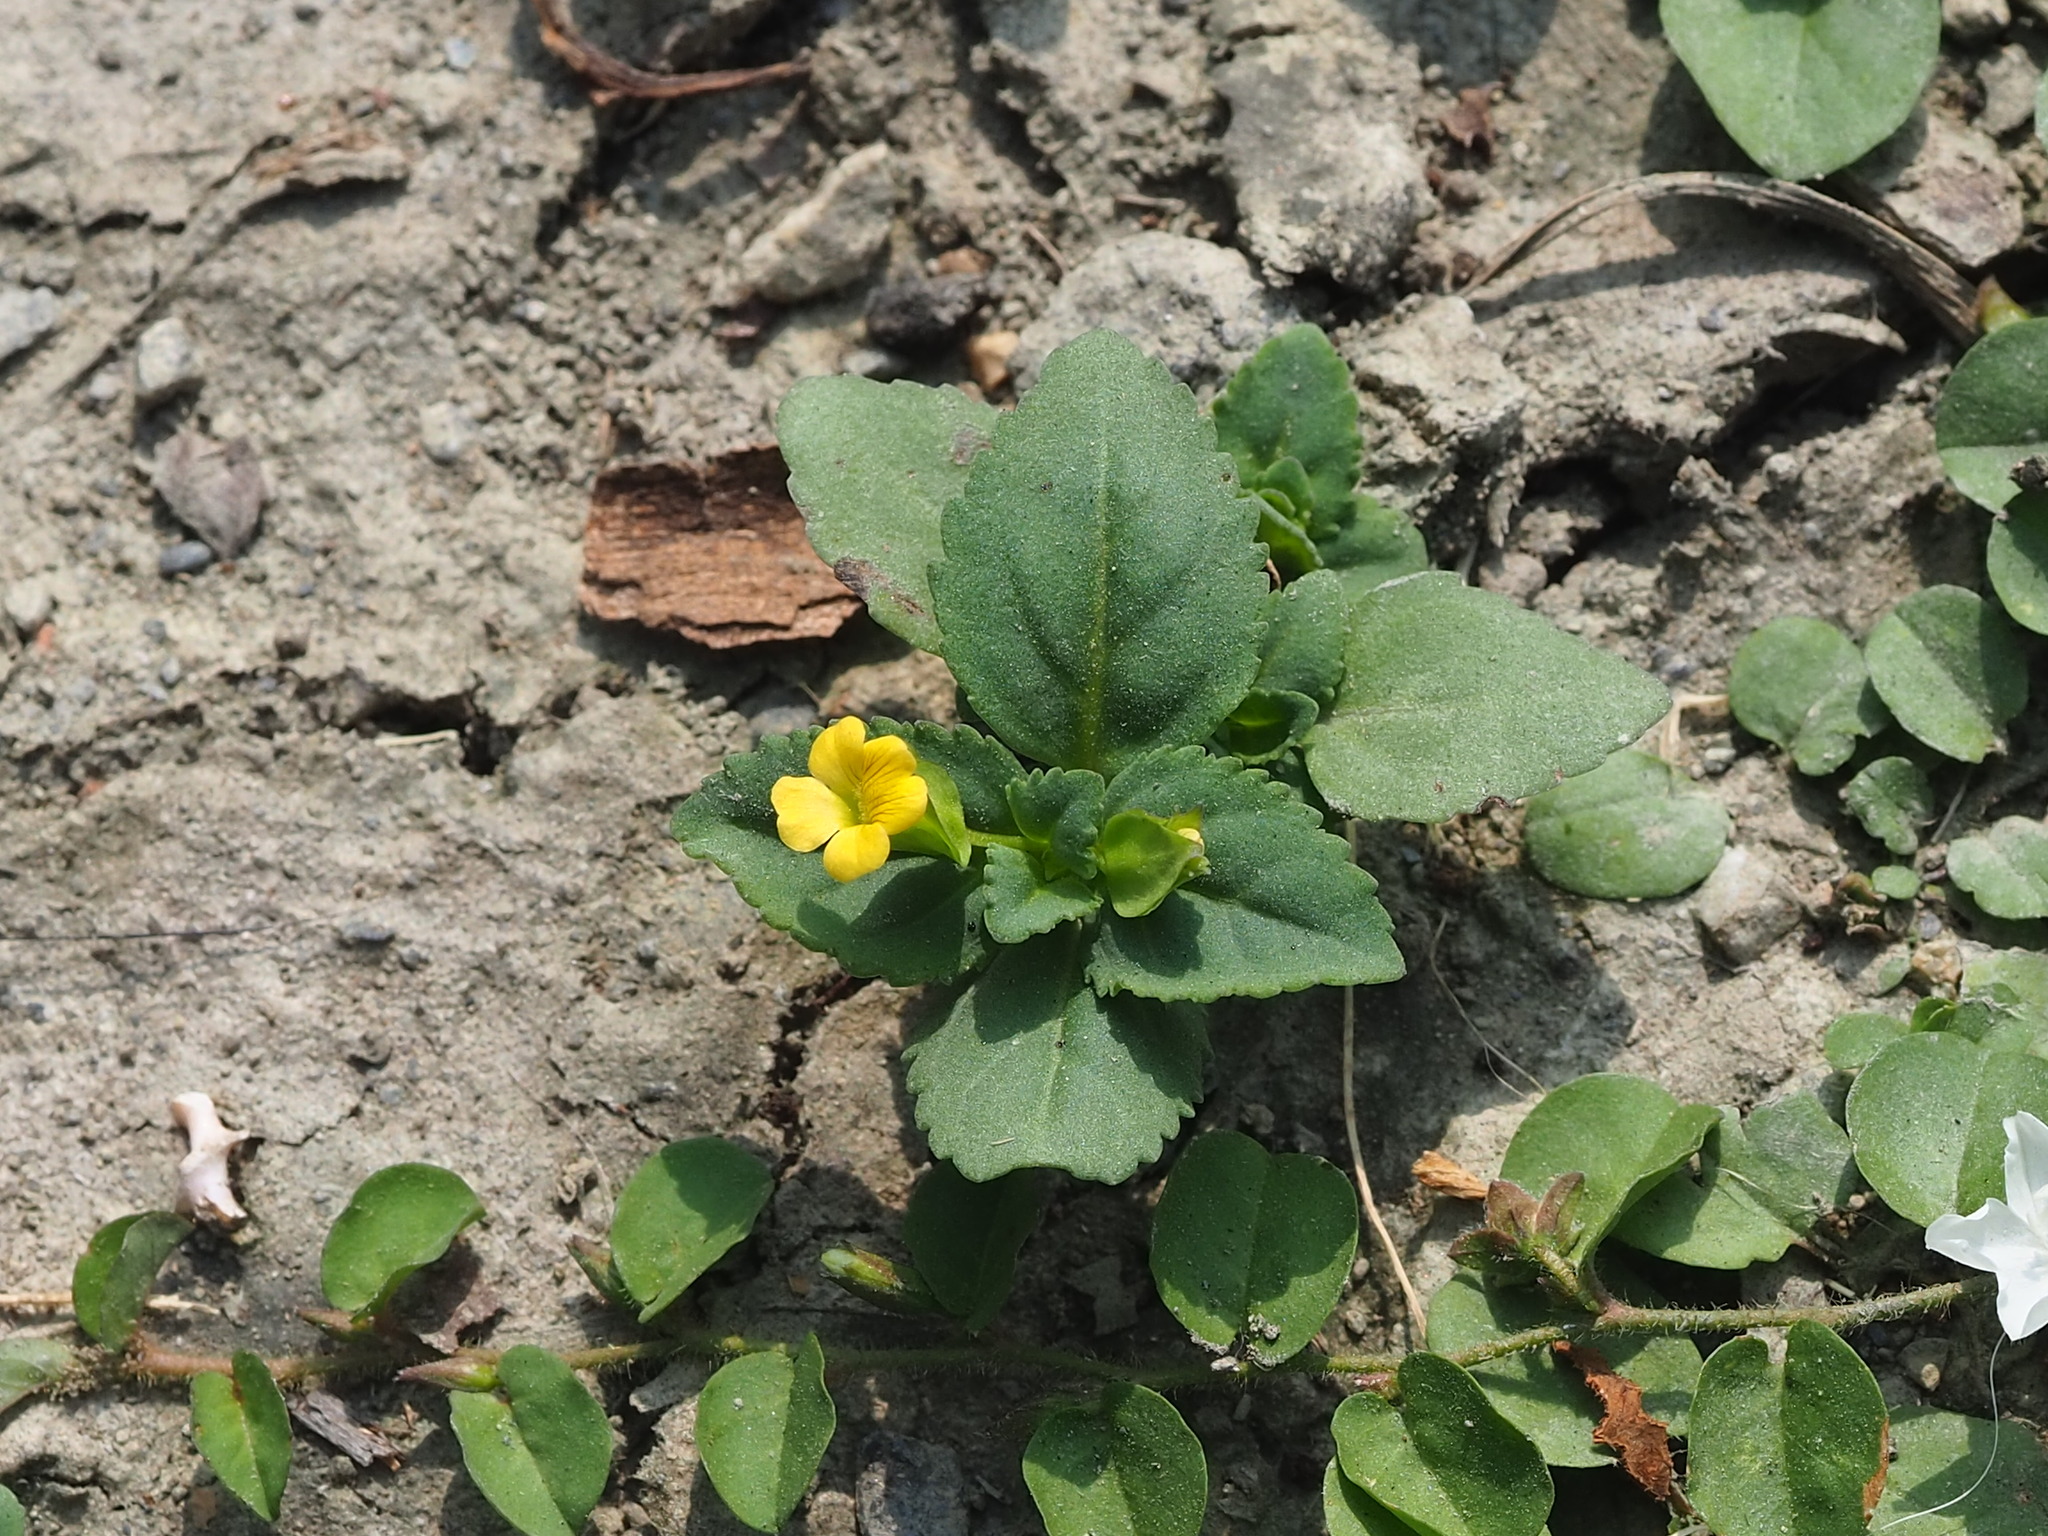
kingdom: Plantae
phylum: Tracheophyta
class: Magnoliopsida
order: Lamiales
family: Plantaginaceae
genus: Mecardonia
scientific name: Mecardonia procumbens
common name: Baby jump-up
